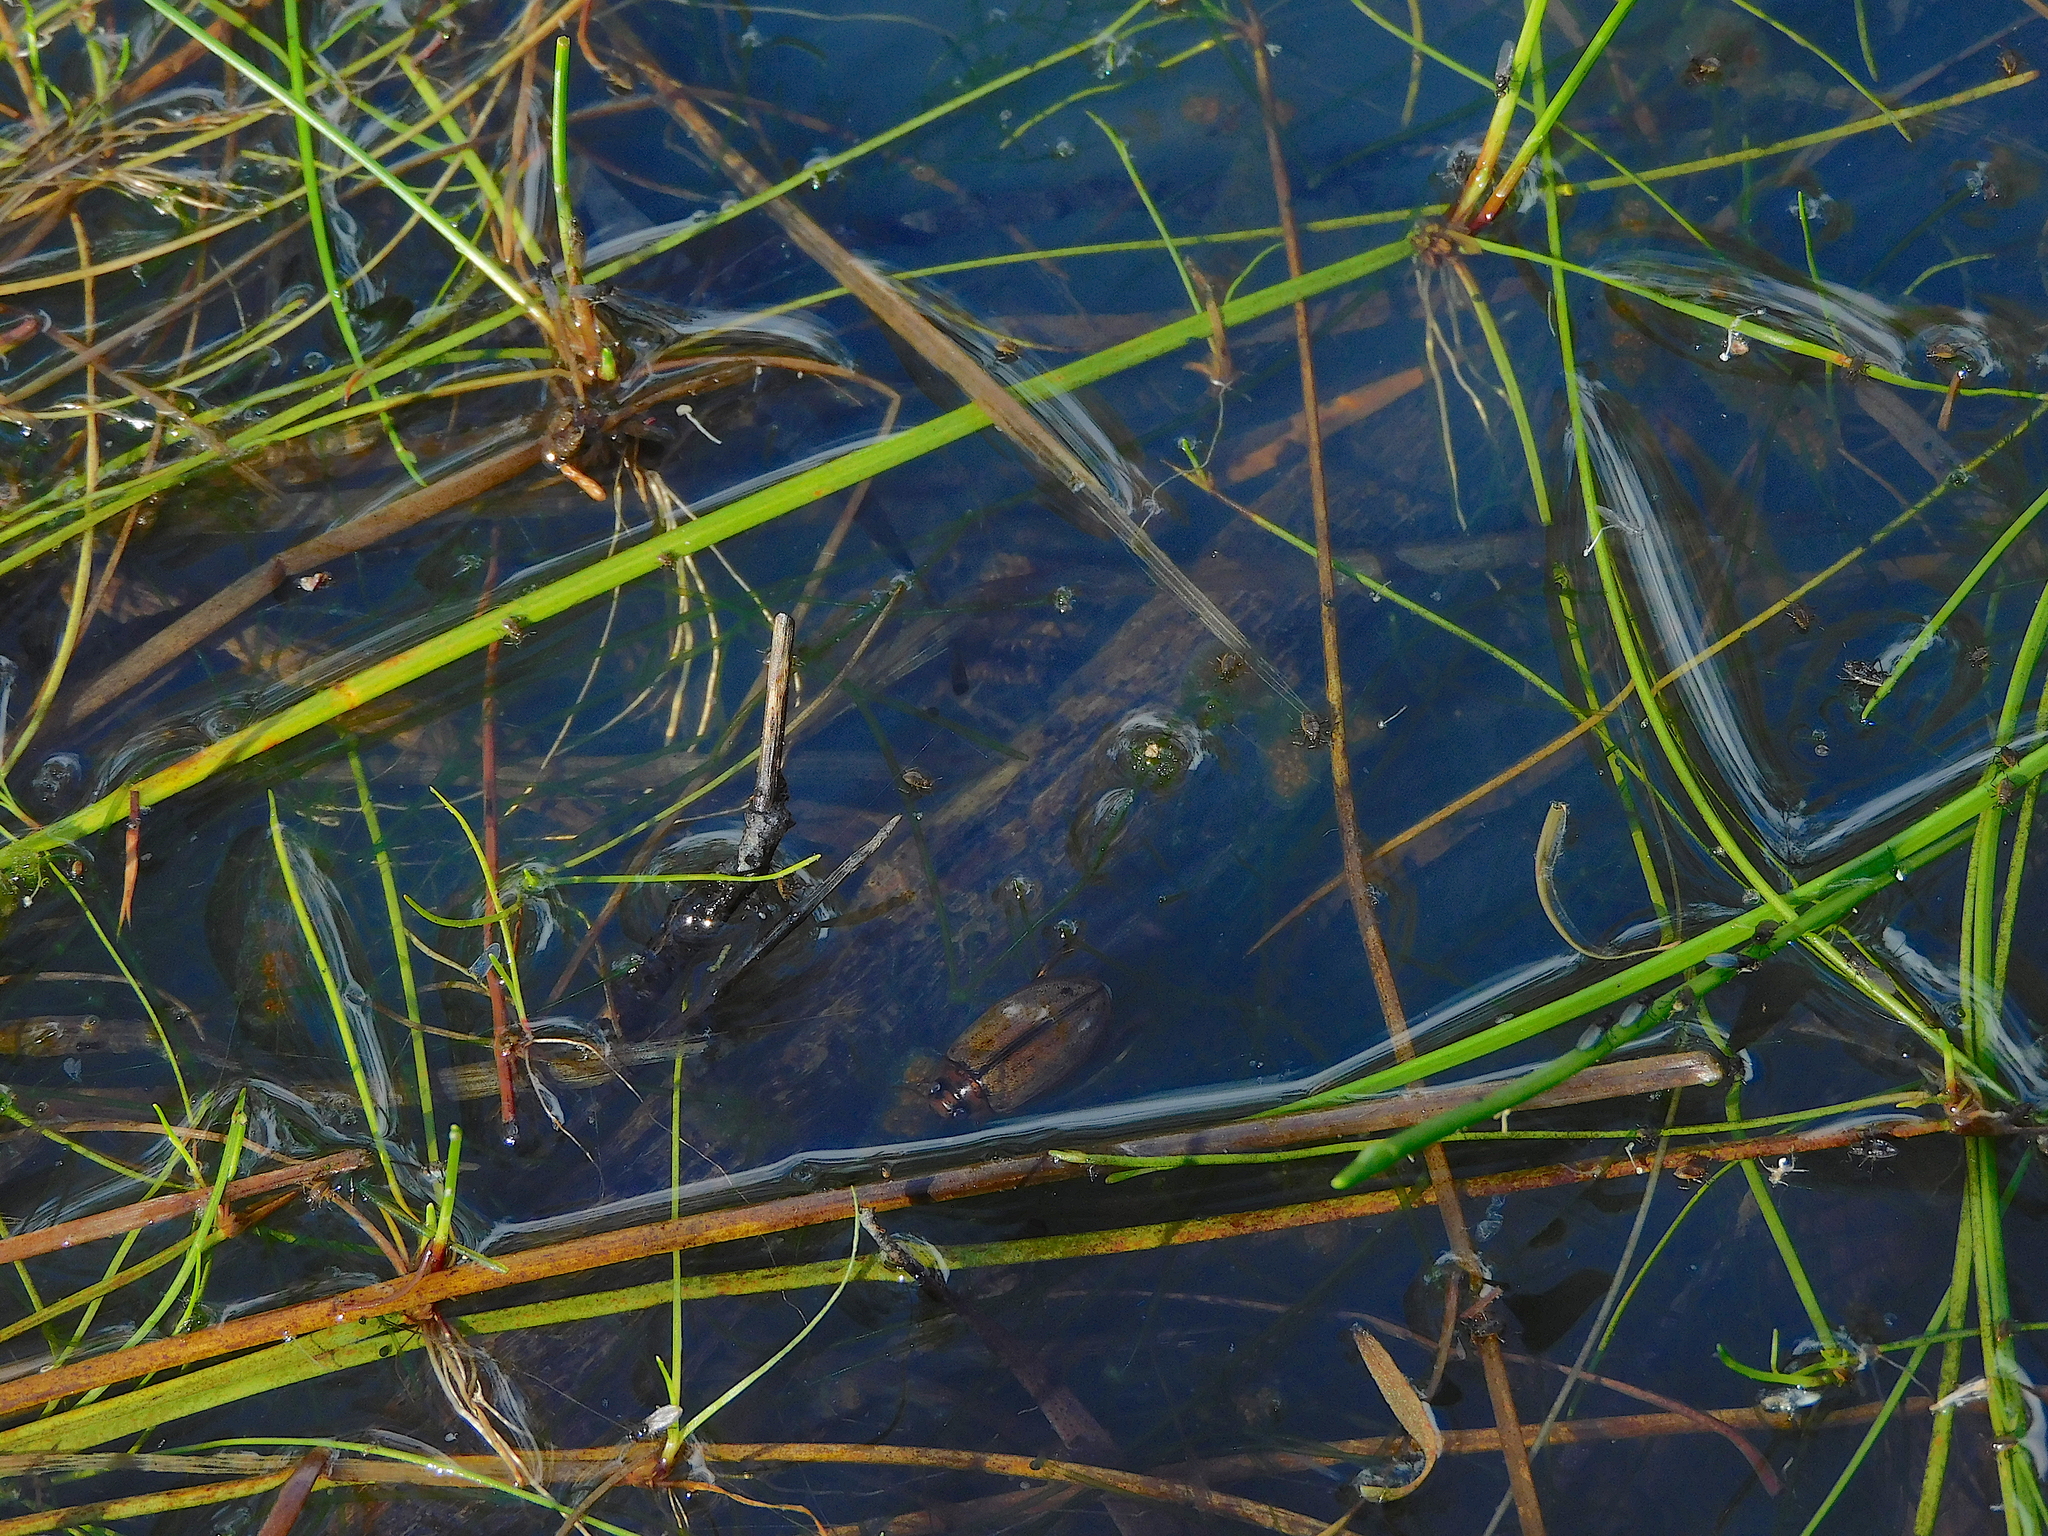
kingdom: Animalia
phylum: Arthropoda
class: Insecta
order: Coleoptera
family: Dytiscidae
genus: Rhantus
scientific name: Rhantus suturalis
